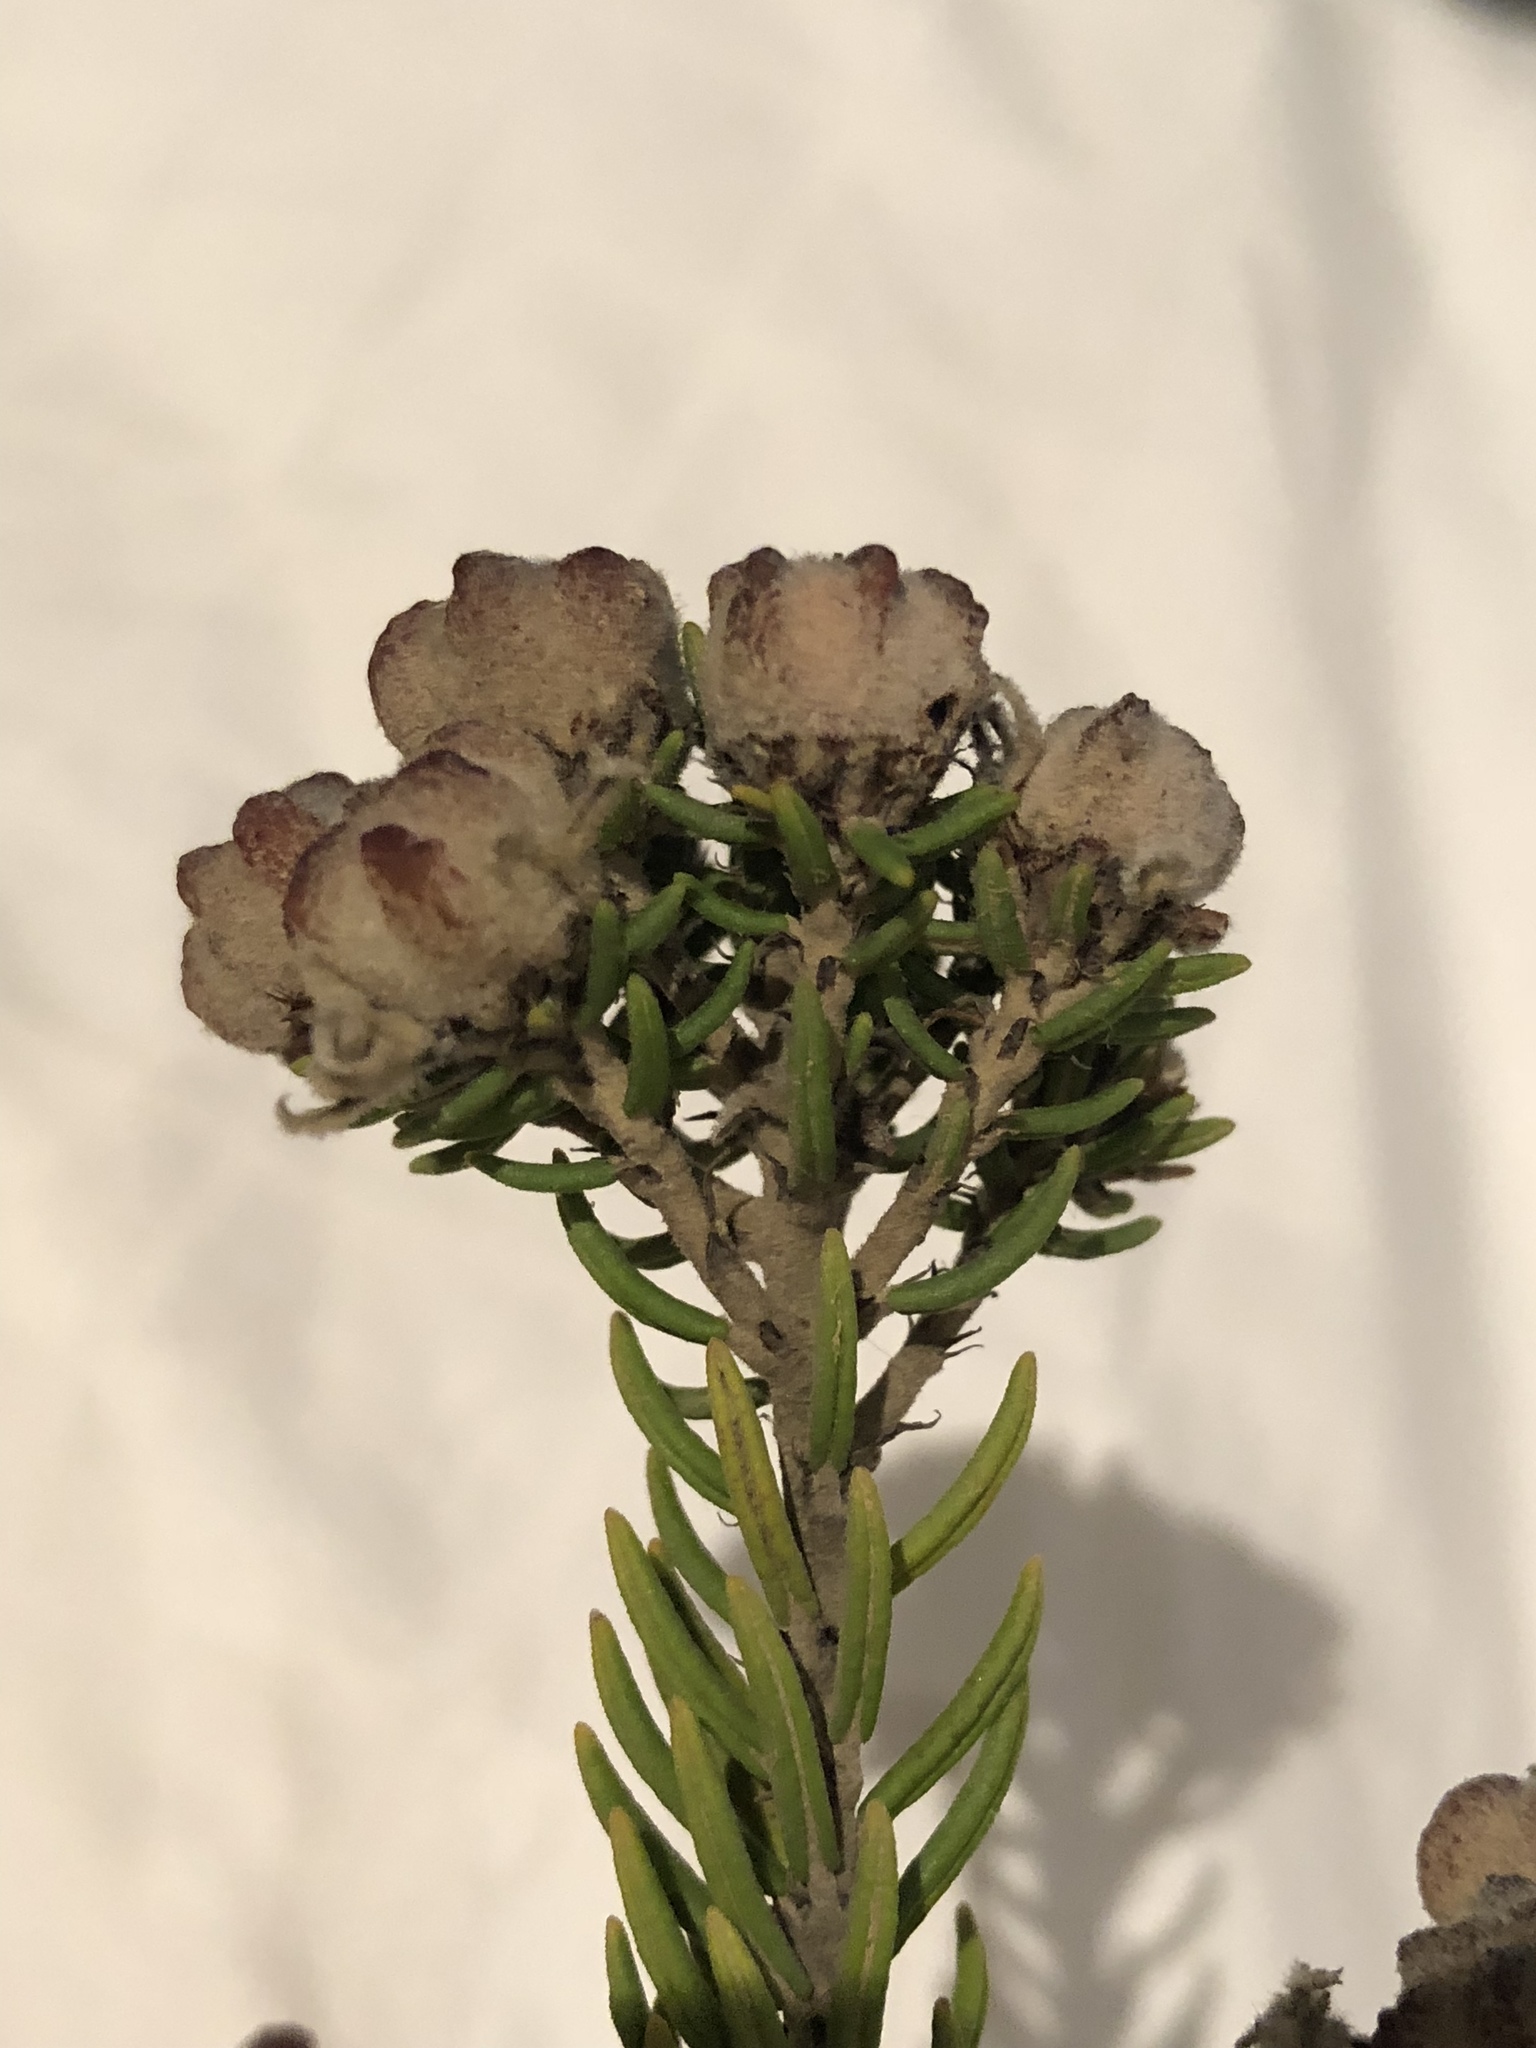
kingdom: Plantae
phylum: Tracheophyta
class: Magnoliopsida
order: Rosales
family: Rhamnaceae
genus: Trichocephalus
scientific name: Trichocephalus stipularis
